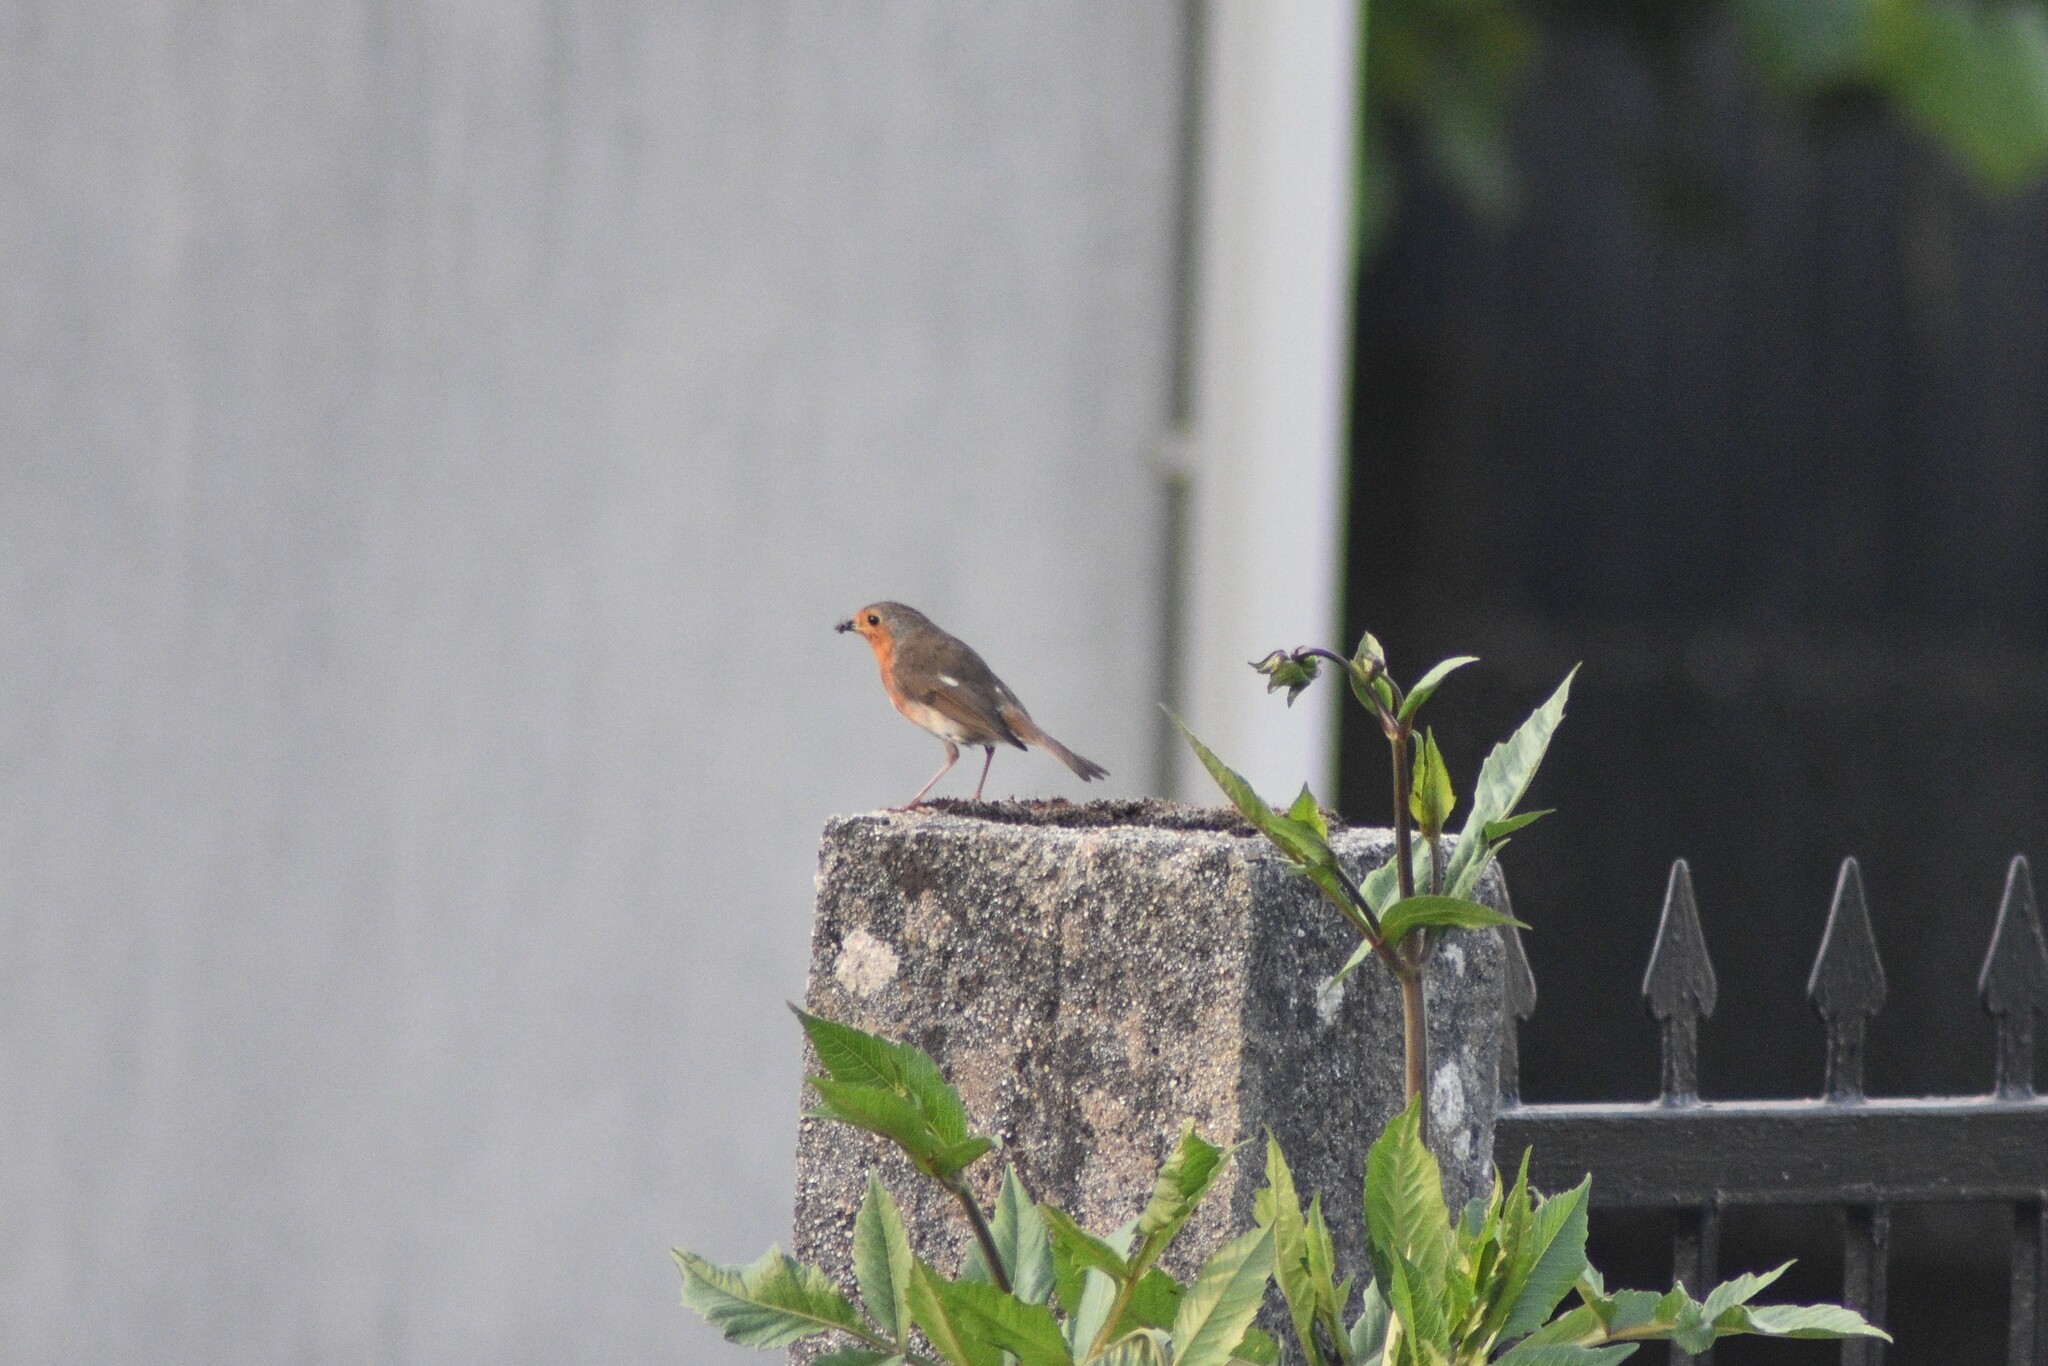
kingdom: Animalia
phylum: Chordata
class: Aves
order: Passeriformes
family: Muscicapidae
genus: Erithacus
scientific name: Erithacus rubecula
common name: European robin
